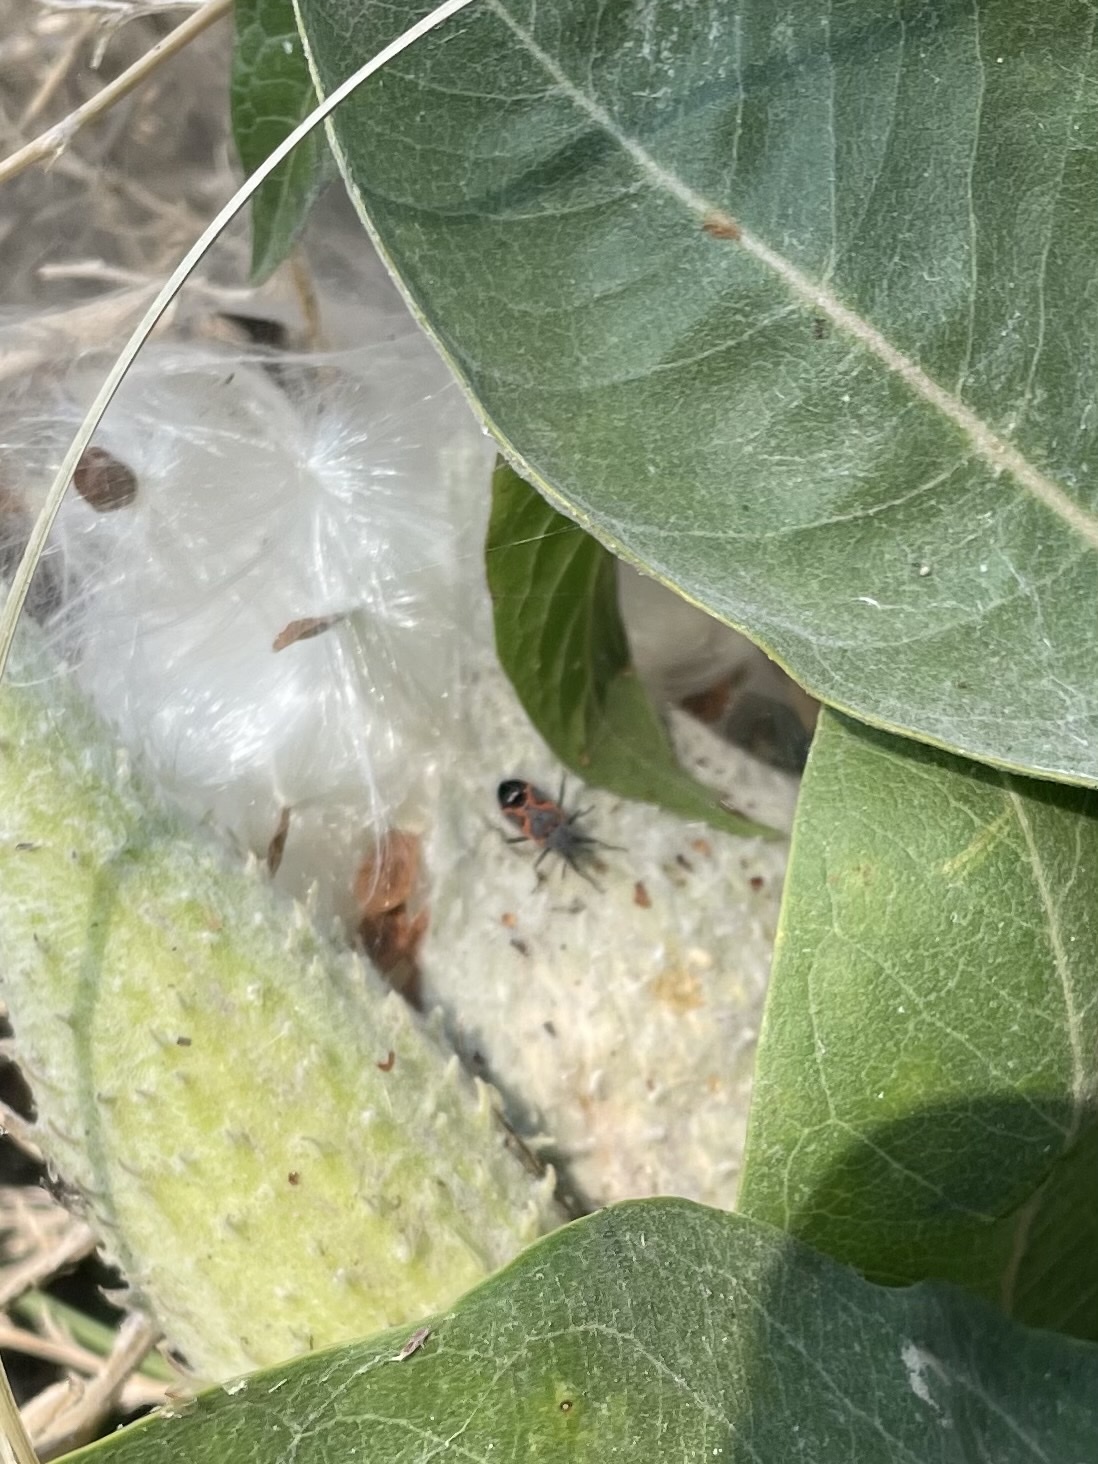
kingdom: Plantae
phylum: Tracheophyta
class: Magnoliopsida
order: Gentianales
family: Apocynaceae
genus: Asclepias
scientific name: Asclepias speciosa
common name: Showy milkweed
